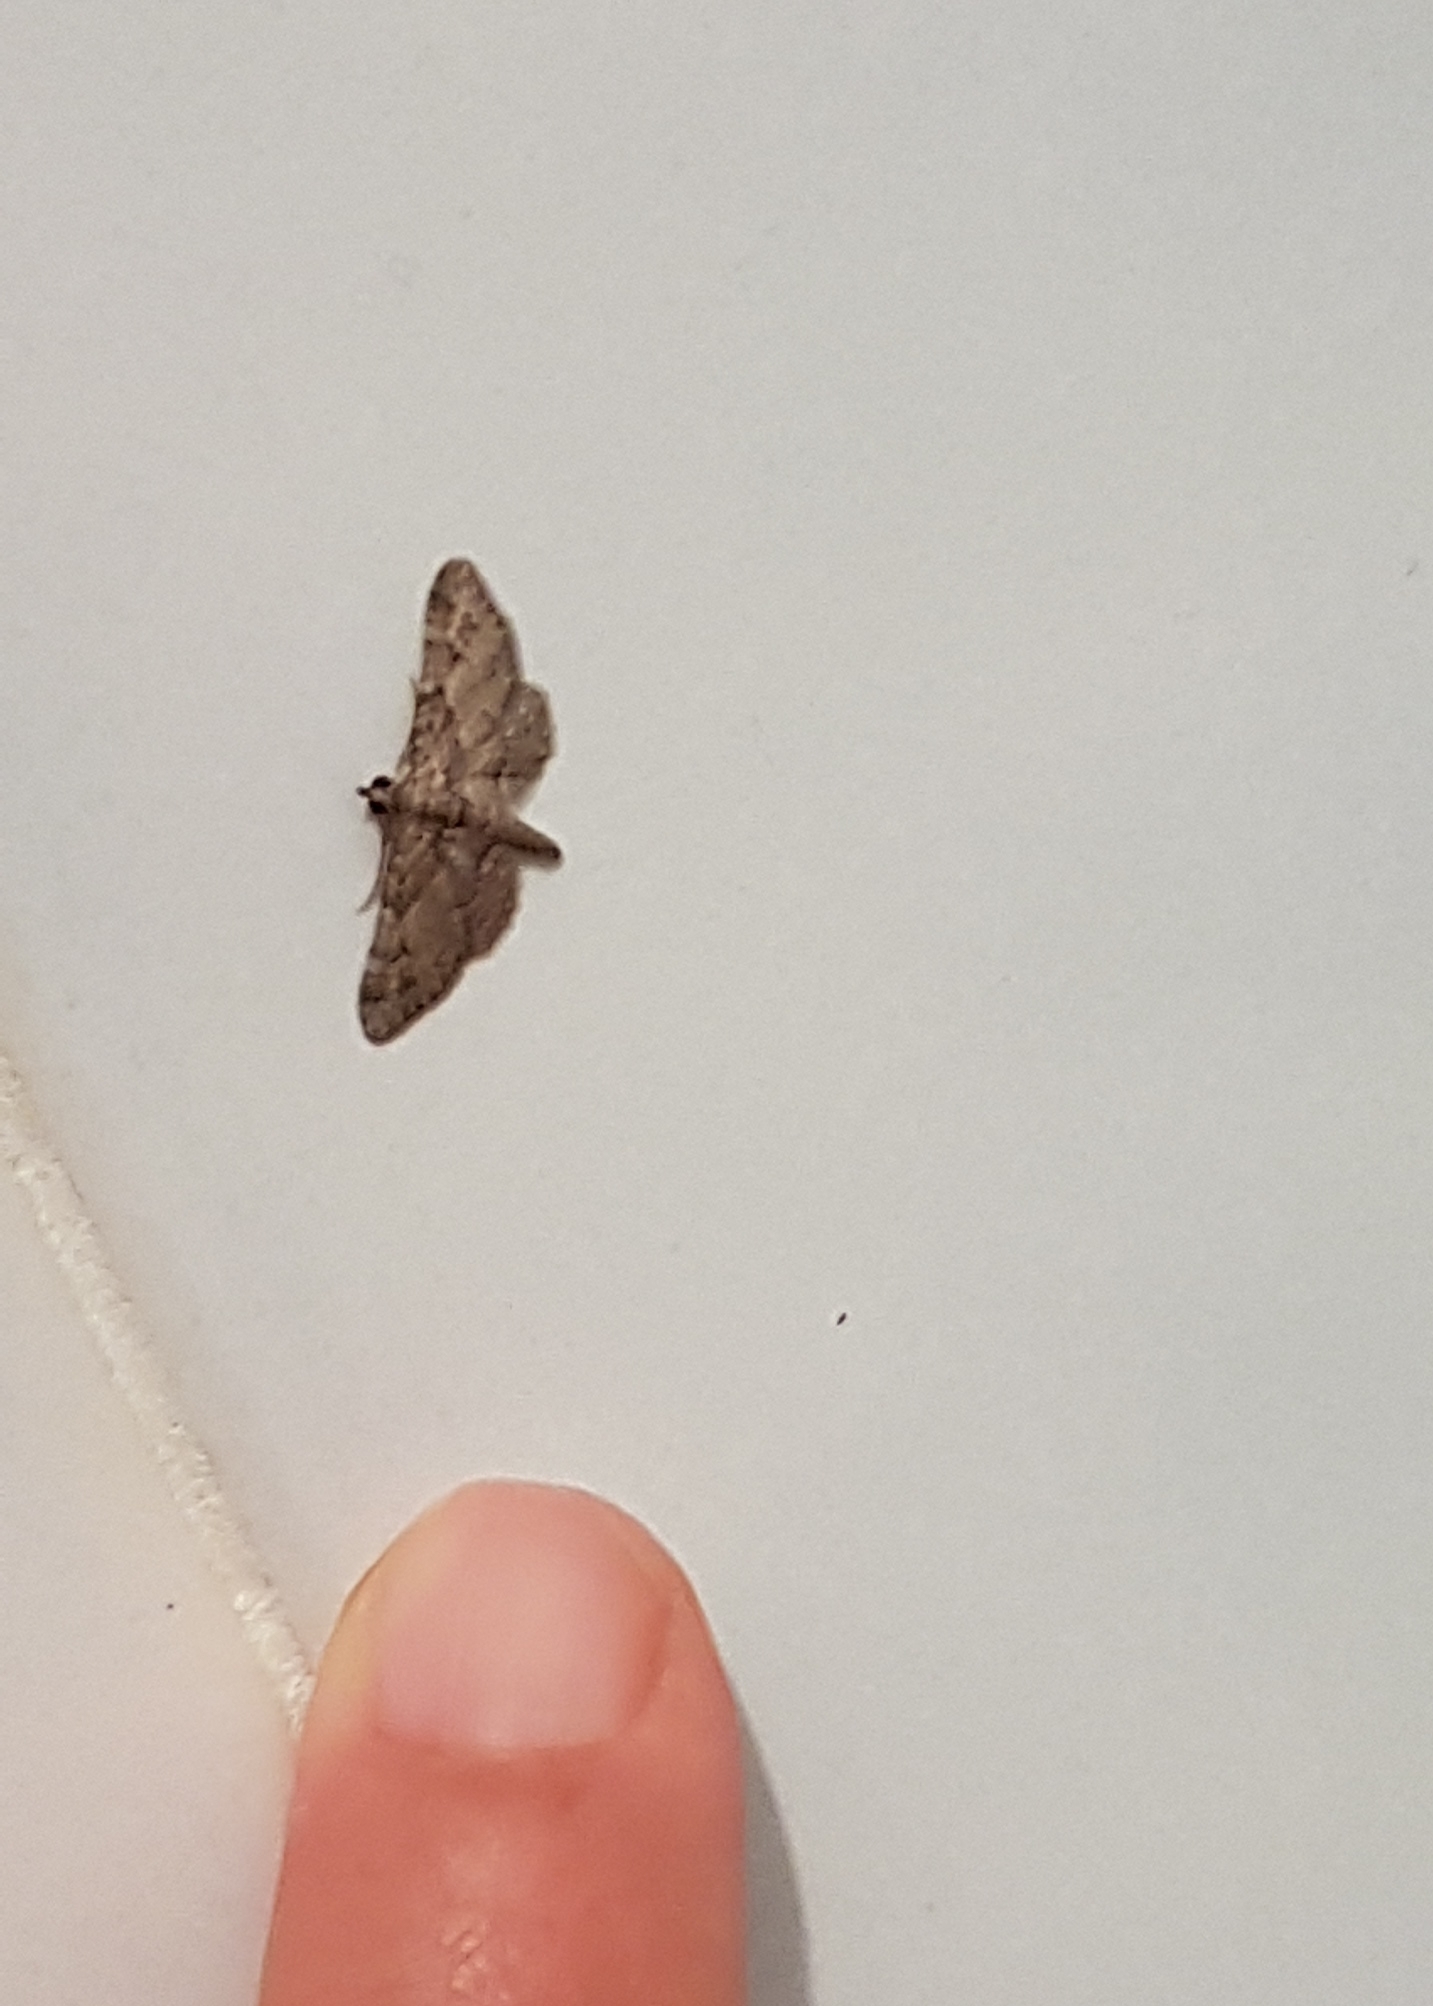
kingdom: Animalia
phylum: Arthropoda
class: Insecta
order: Lepidoptera
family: Geometridae
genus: Gymnoscelis
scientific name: Gymnoscelis rufifasciata
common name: Double-striped pug
